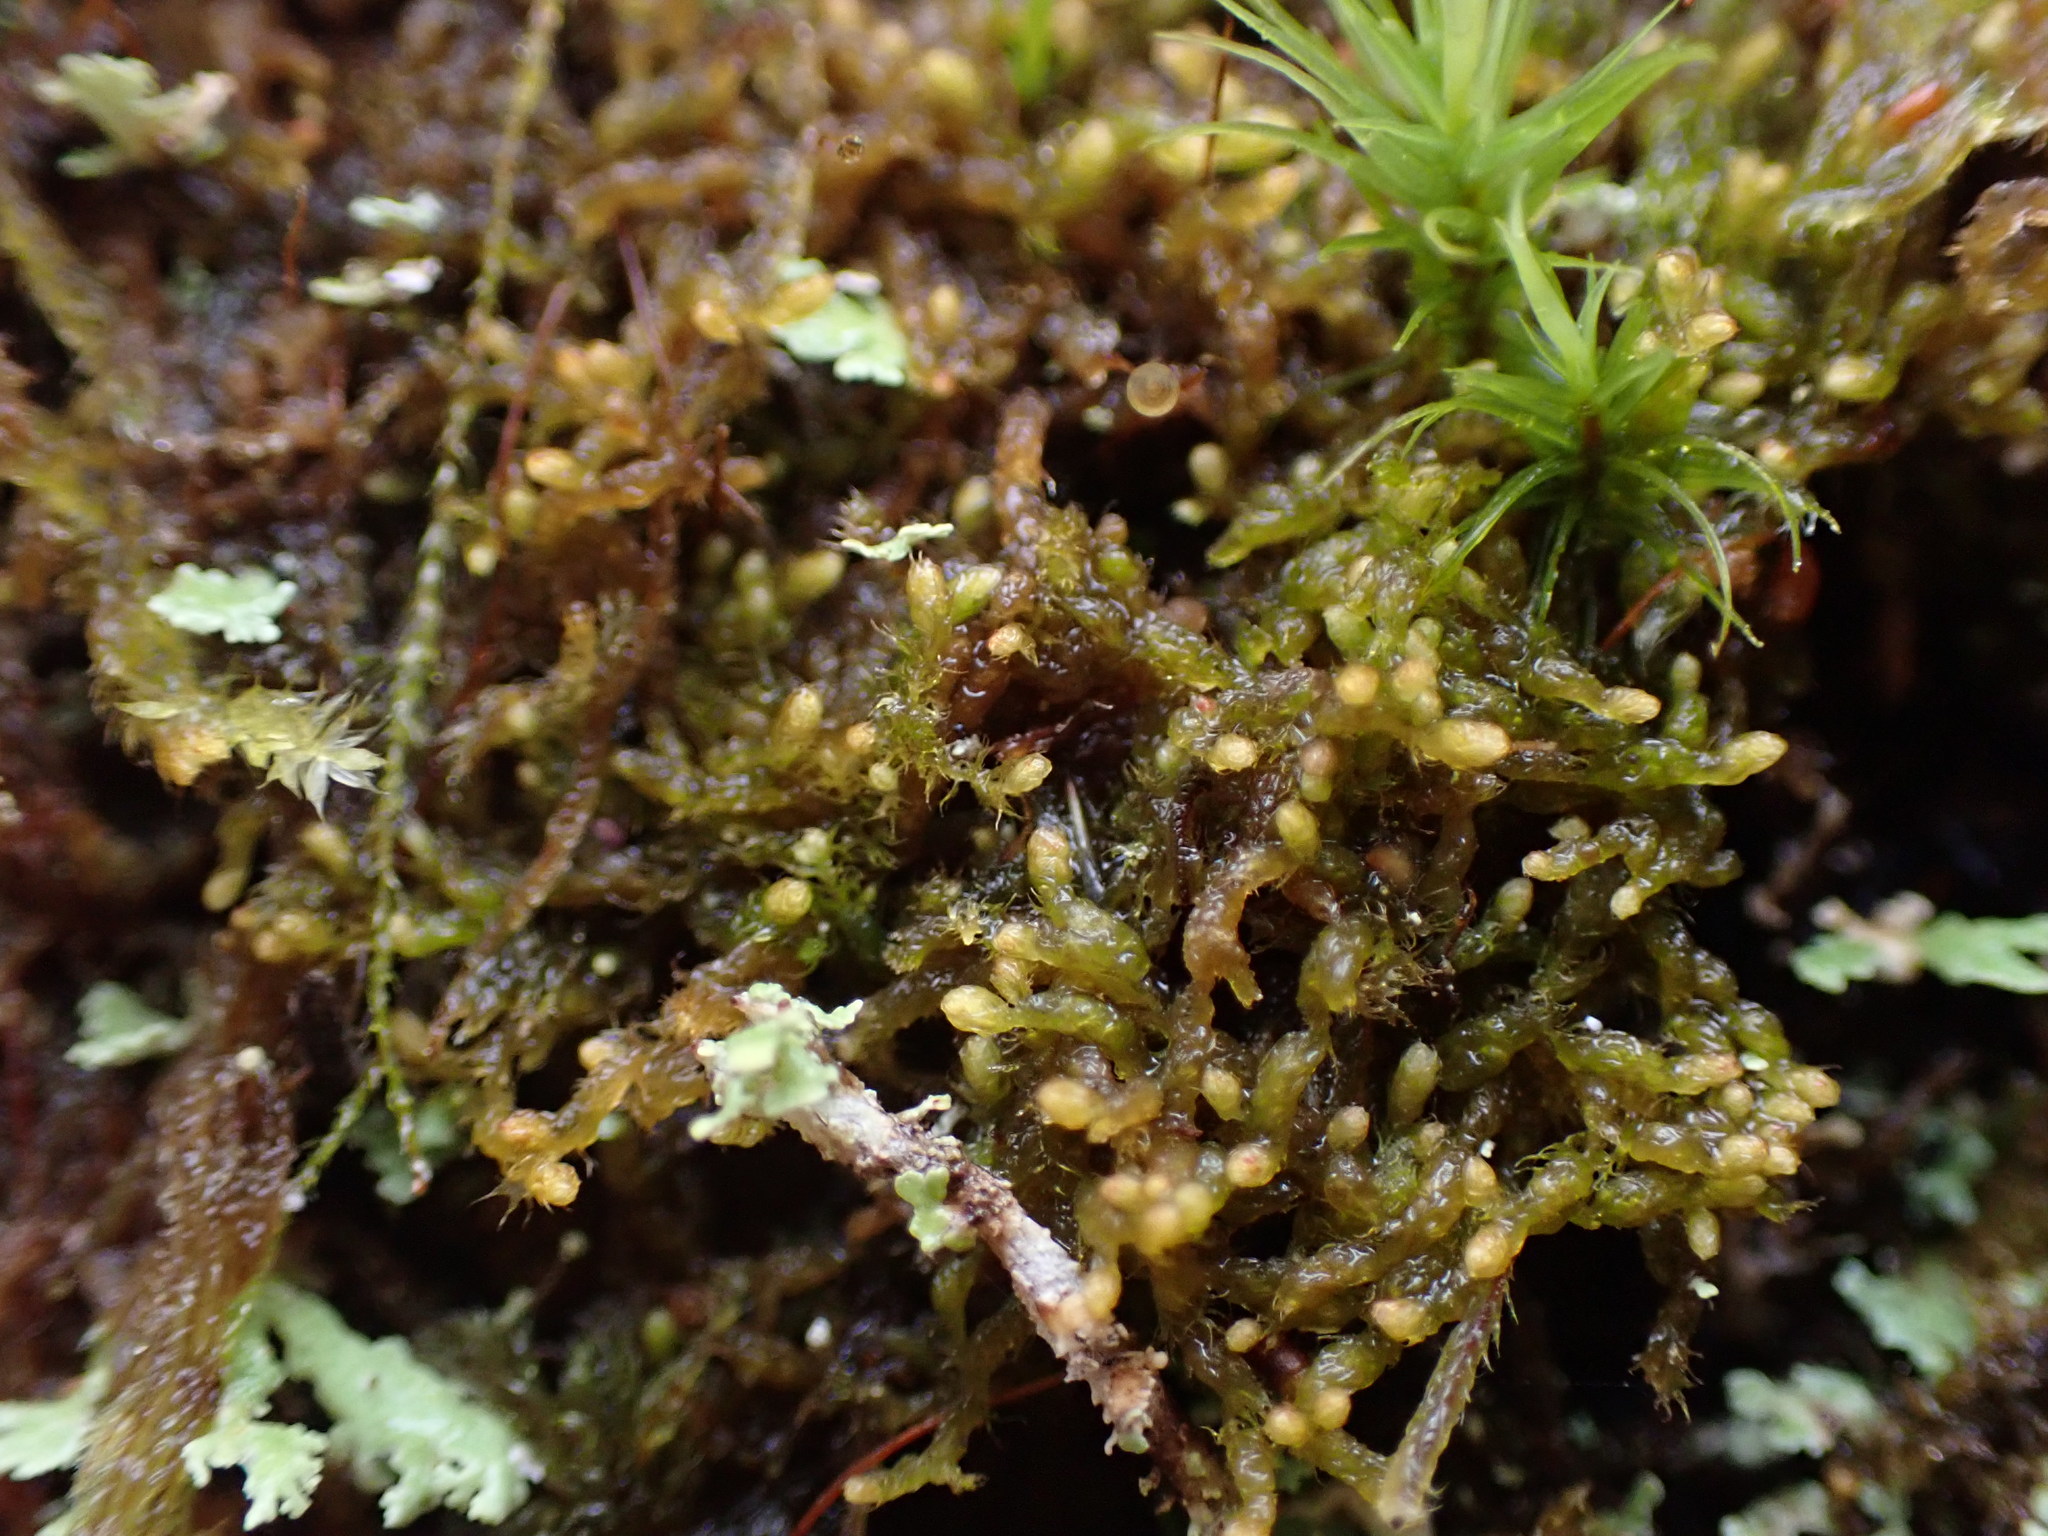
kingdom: Plantae
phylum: Marchantiophyta
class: Jungermanniopsida
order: Ptilidiales
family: Ptilidiaceae
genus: Ptilidium
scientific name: Ptilidium californicum
